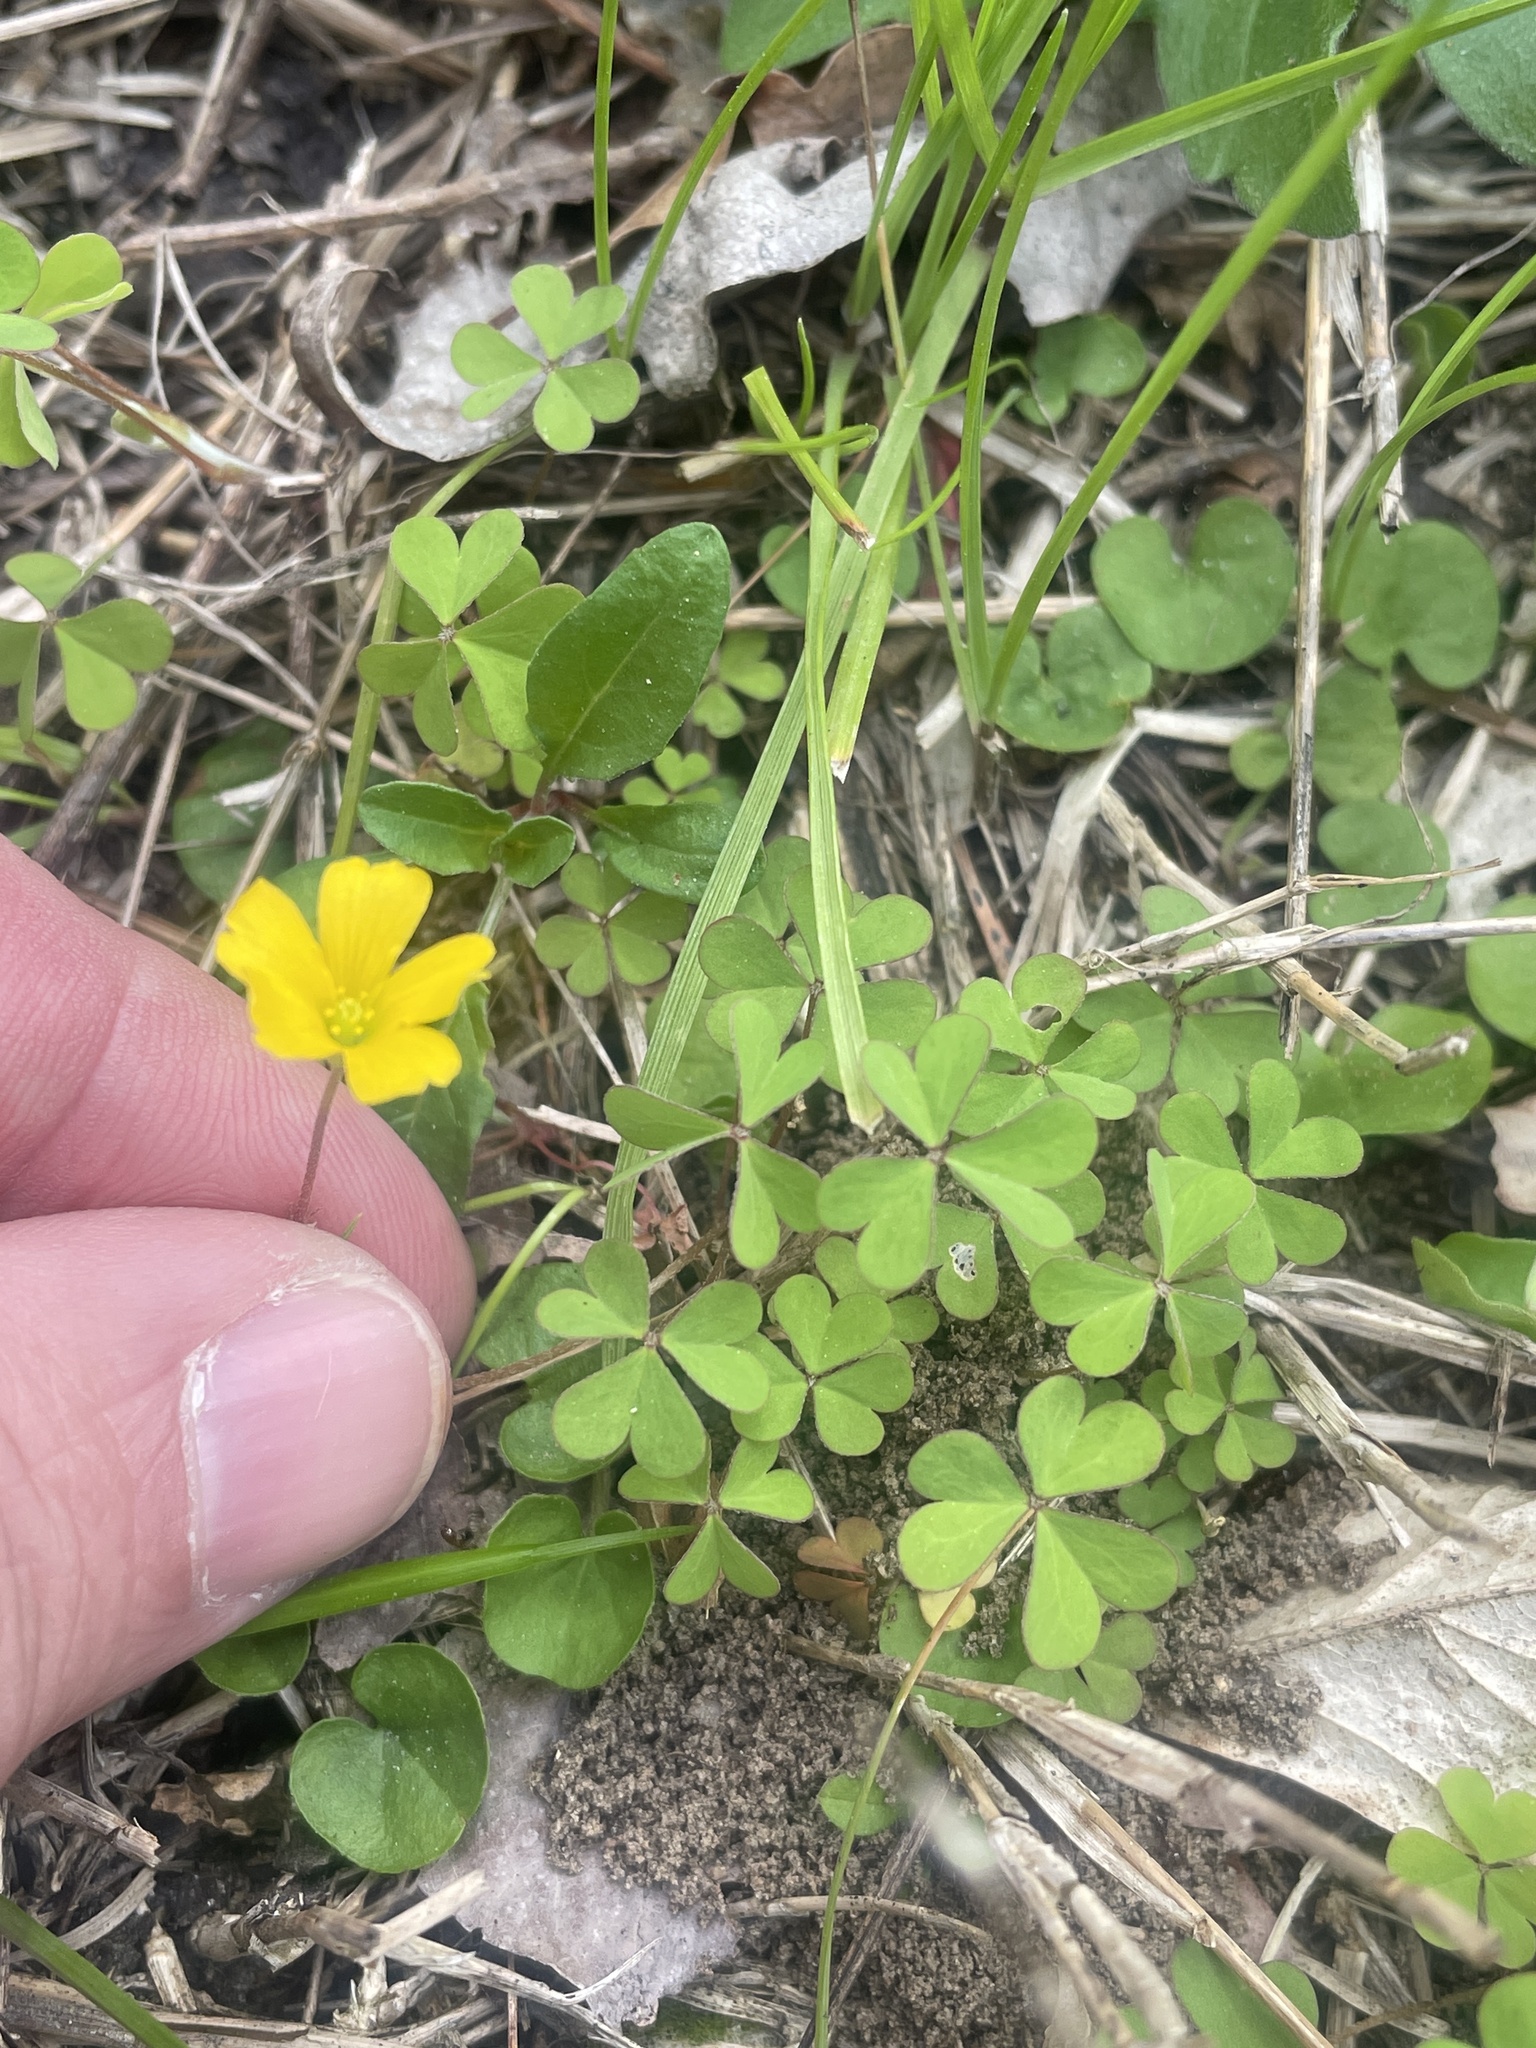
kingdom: Plantae
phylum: Tracheophyta
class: Magnoliopsida
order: Oxalidales
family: Oxalidaceae
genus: Oxalis
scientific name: Oxalis dillenii
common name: Sussex yellow-sorrel
